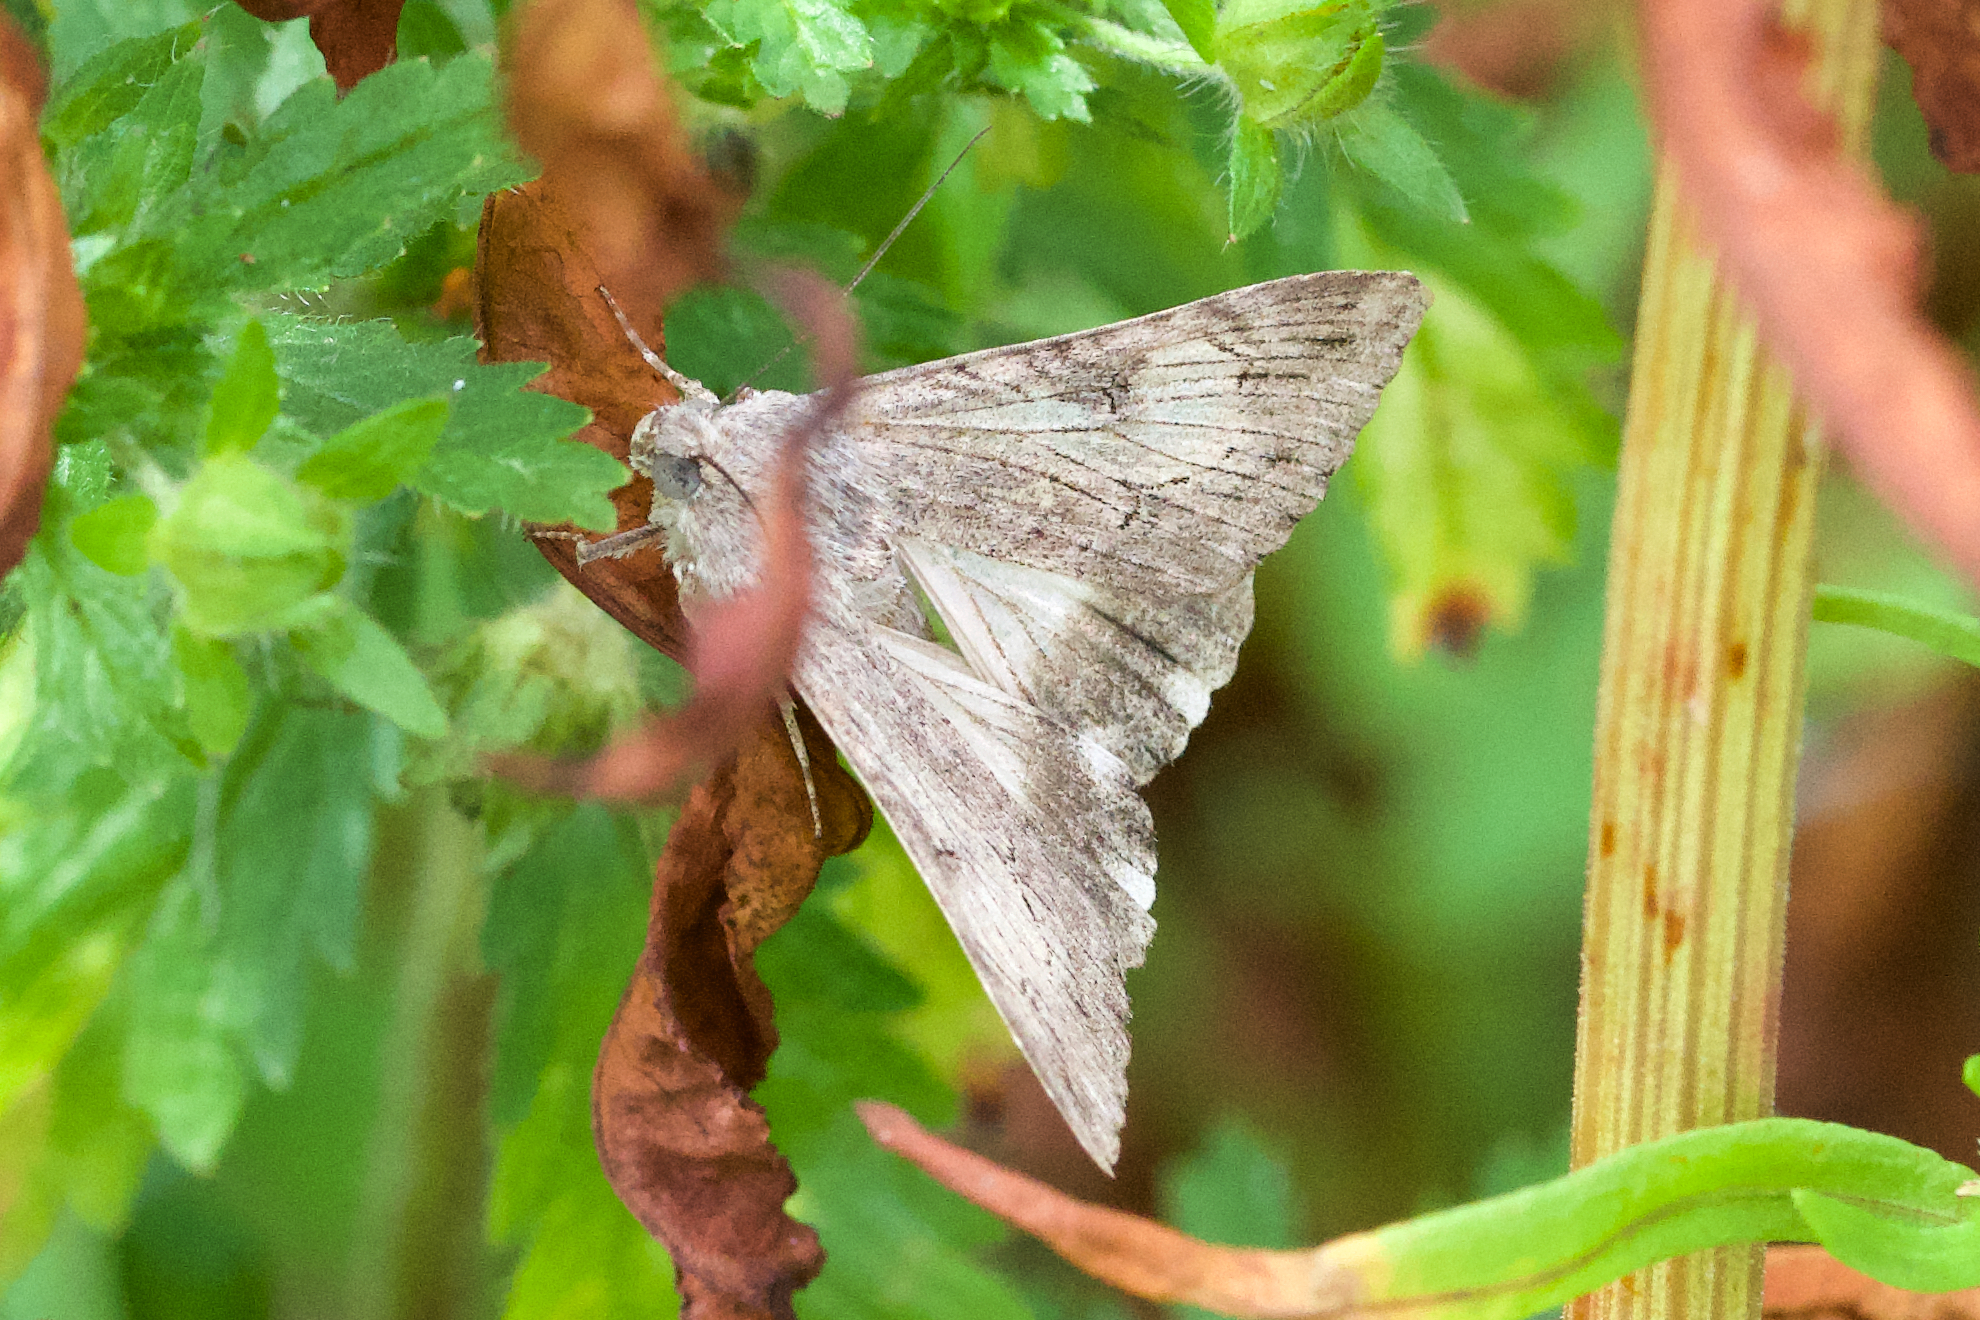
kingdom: Animalia
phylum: Arthropoda
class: Insecta
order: Lepidoptera
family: Erebidae
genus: Melipotis
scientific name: Melipotis jucunda
